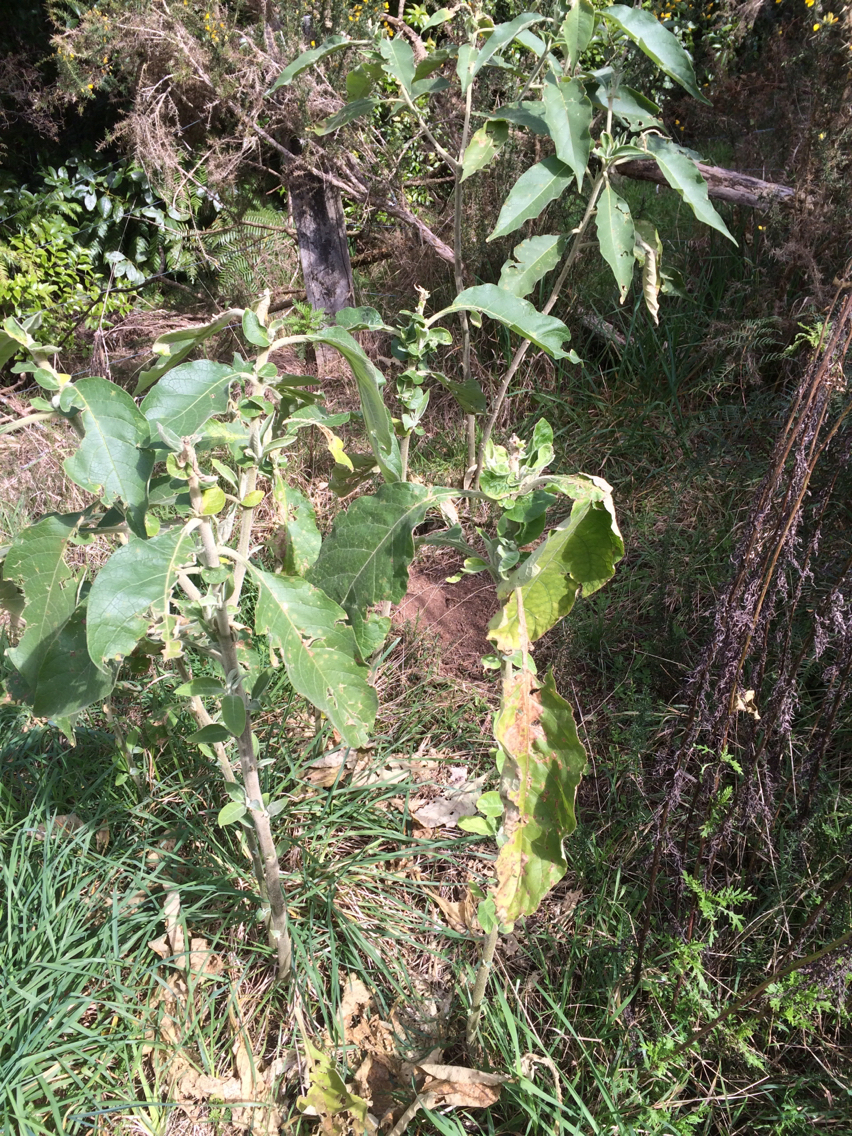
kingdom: Plantae
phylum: Tracheophyta
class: Magnoliopsida
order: Solanales
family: Solanaceae
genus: Solanum
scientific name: Solanum mauritianum
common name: Earleaf nightshade
